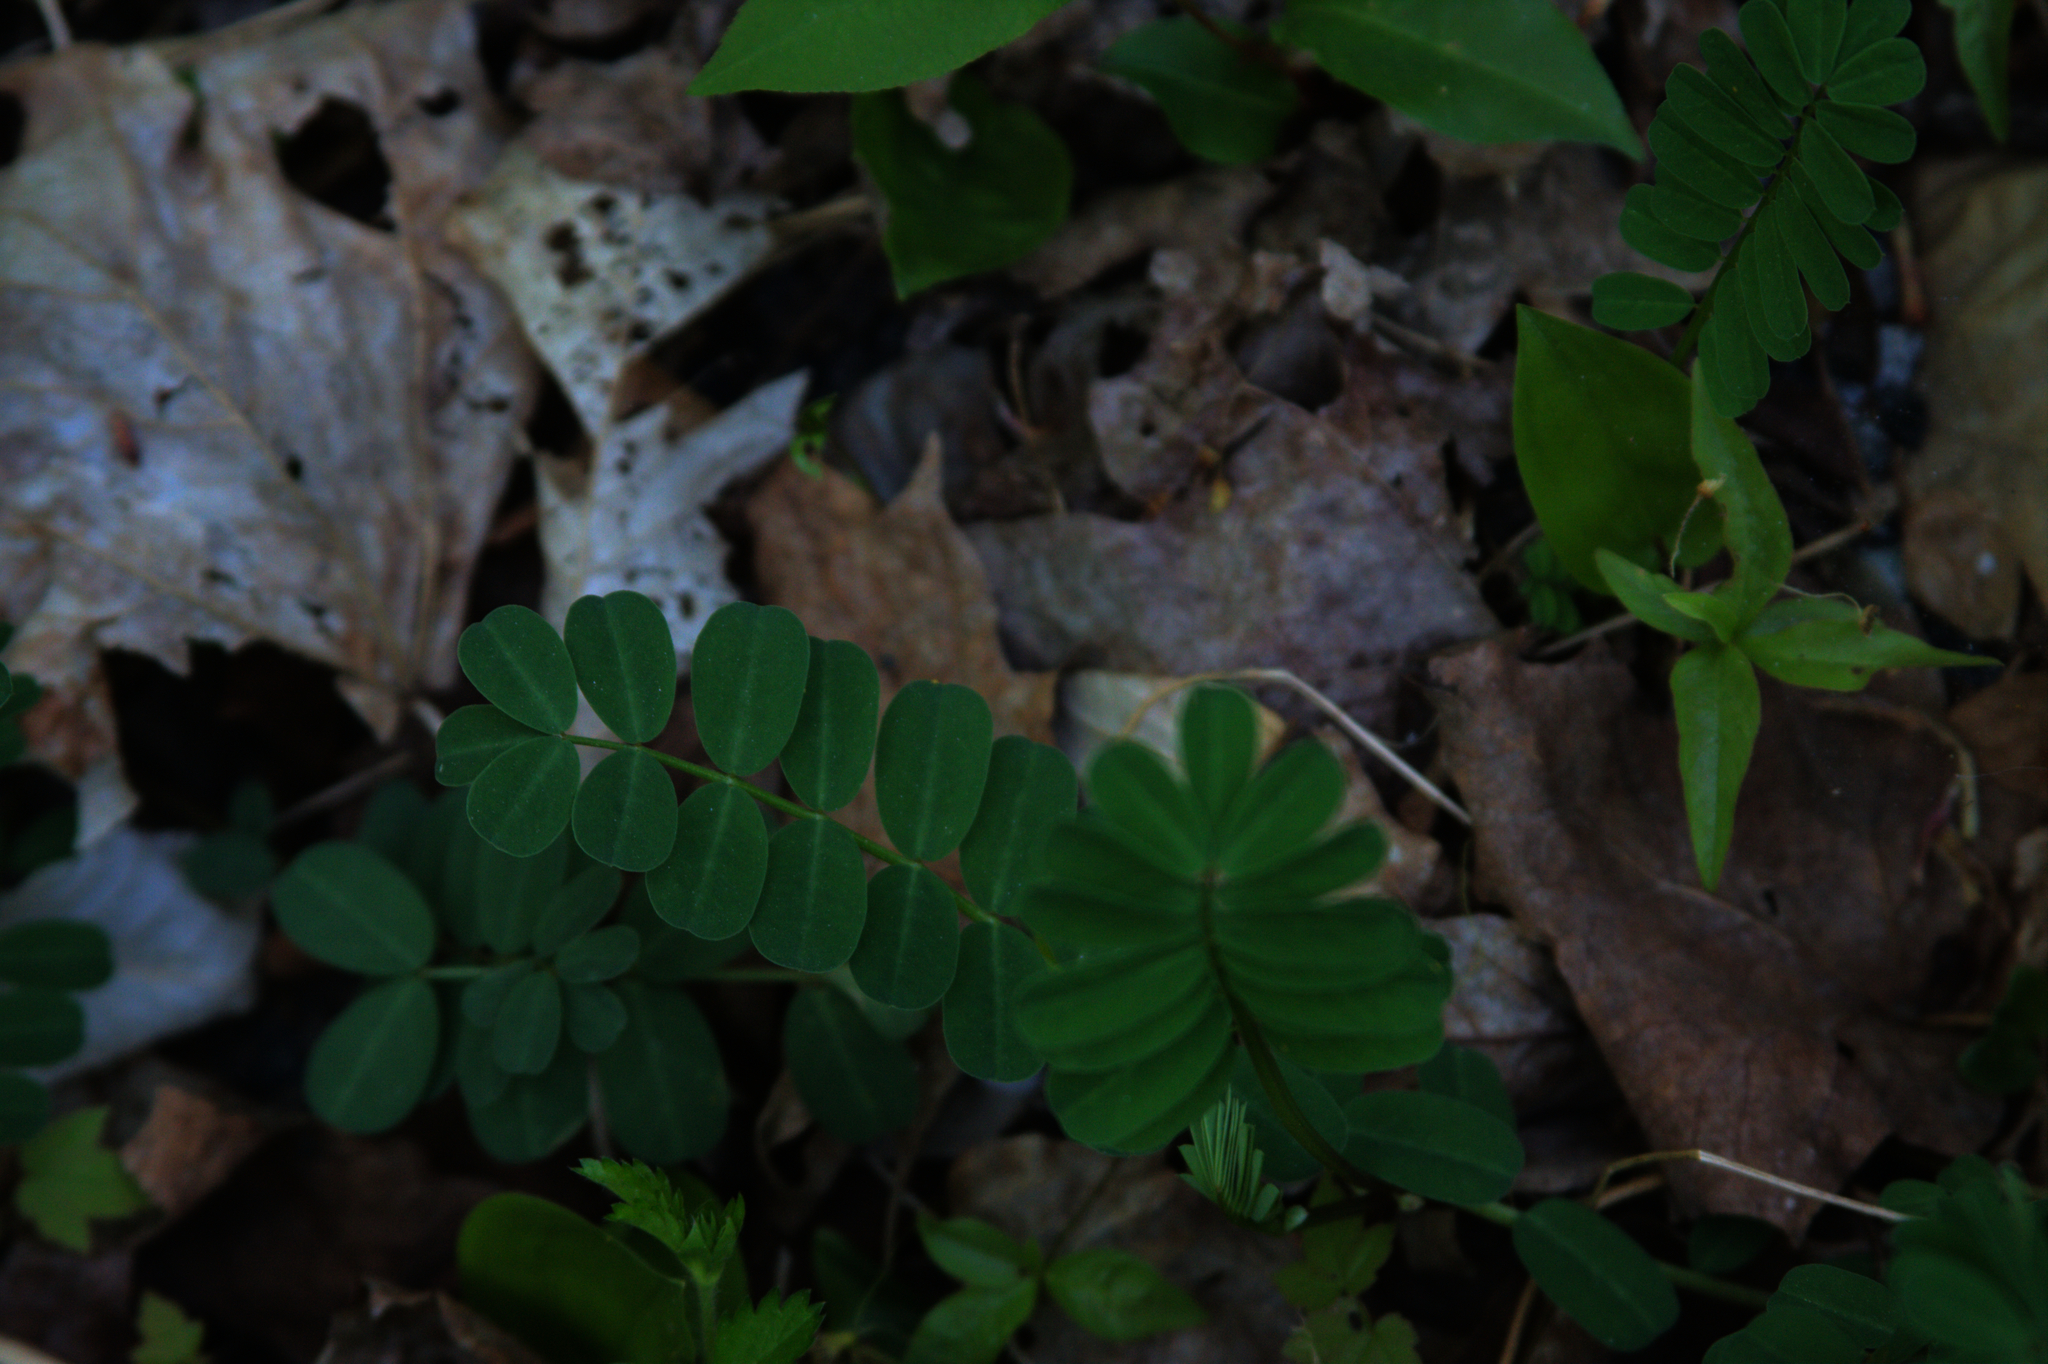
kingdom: Plantae
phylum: Tracheophyta
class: Magnoliopsida
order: Fabales
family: Fabaceae
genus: Coronilla
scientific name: Coronilla varia
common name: Crownvetch
